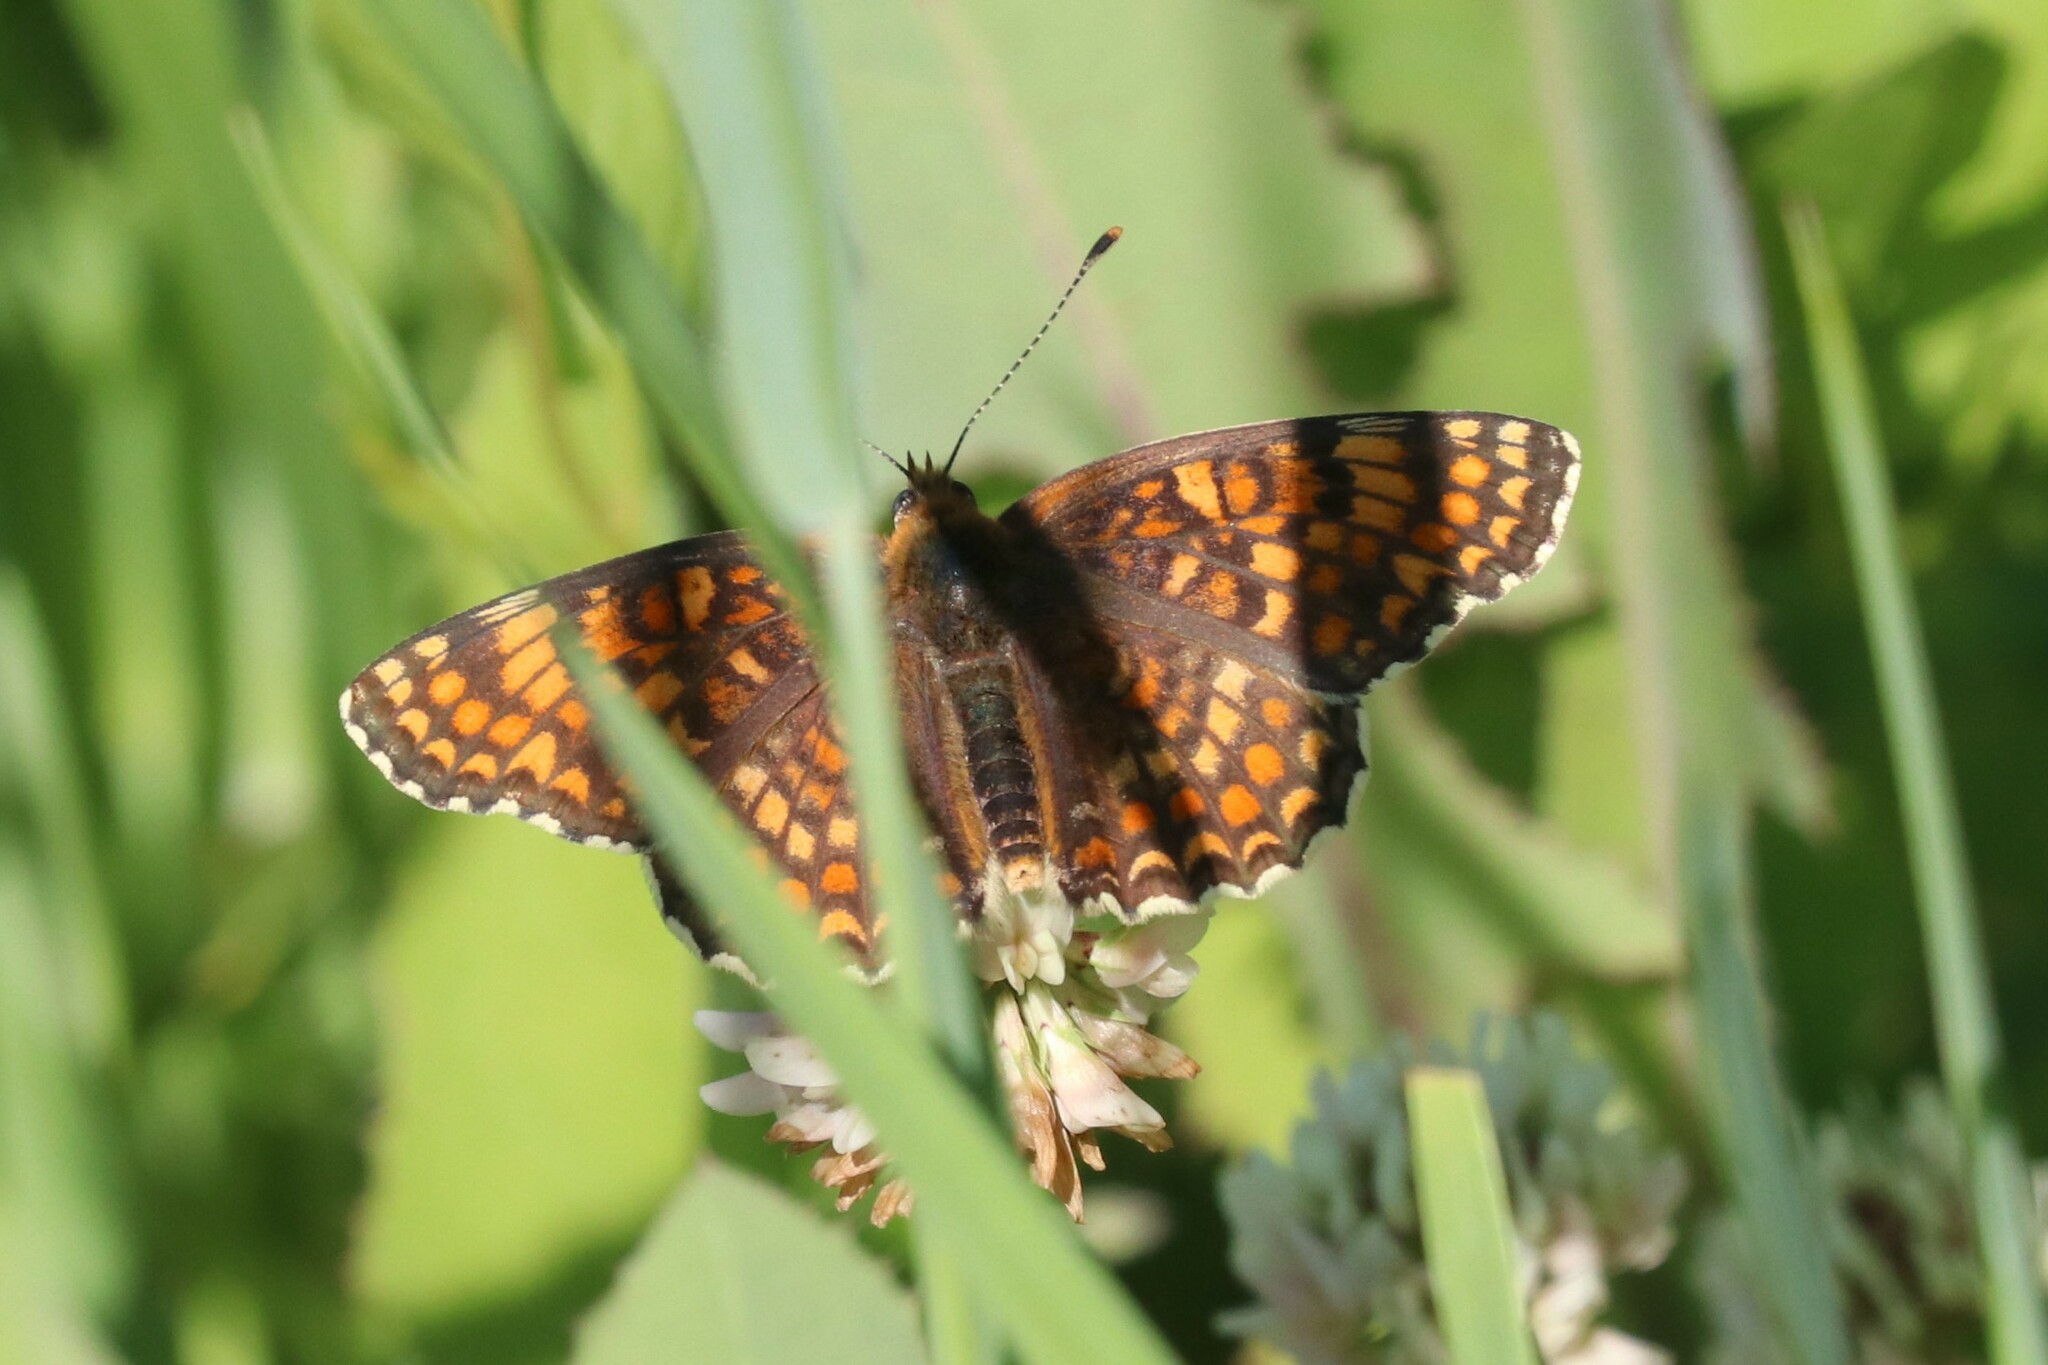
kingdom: Animalia
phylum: Arthropoda
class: Insecta
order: Lepidoptera
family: Nymphalidae
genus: Melitaea
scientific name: Melitaea phoebe
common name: Knapweed fritillary
